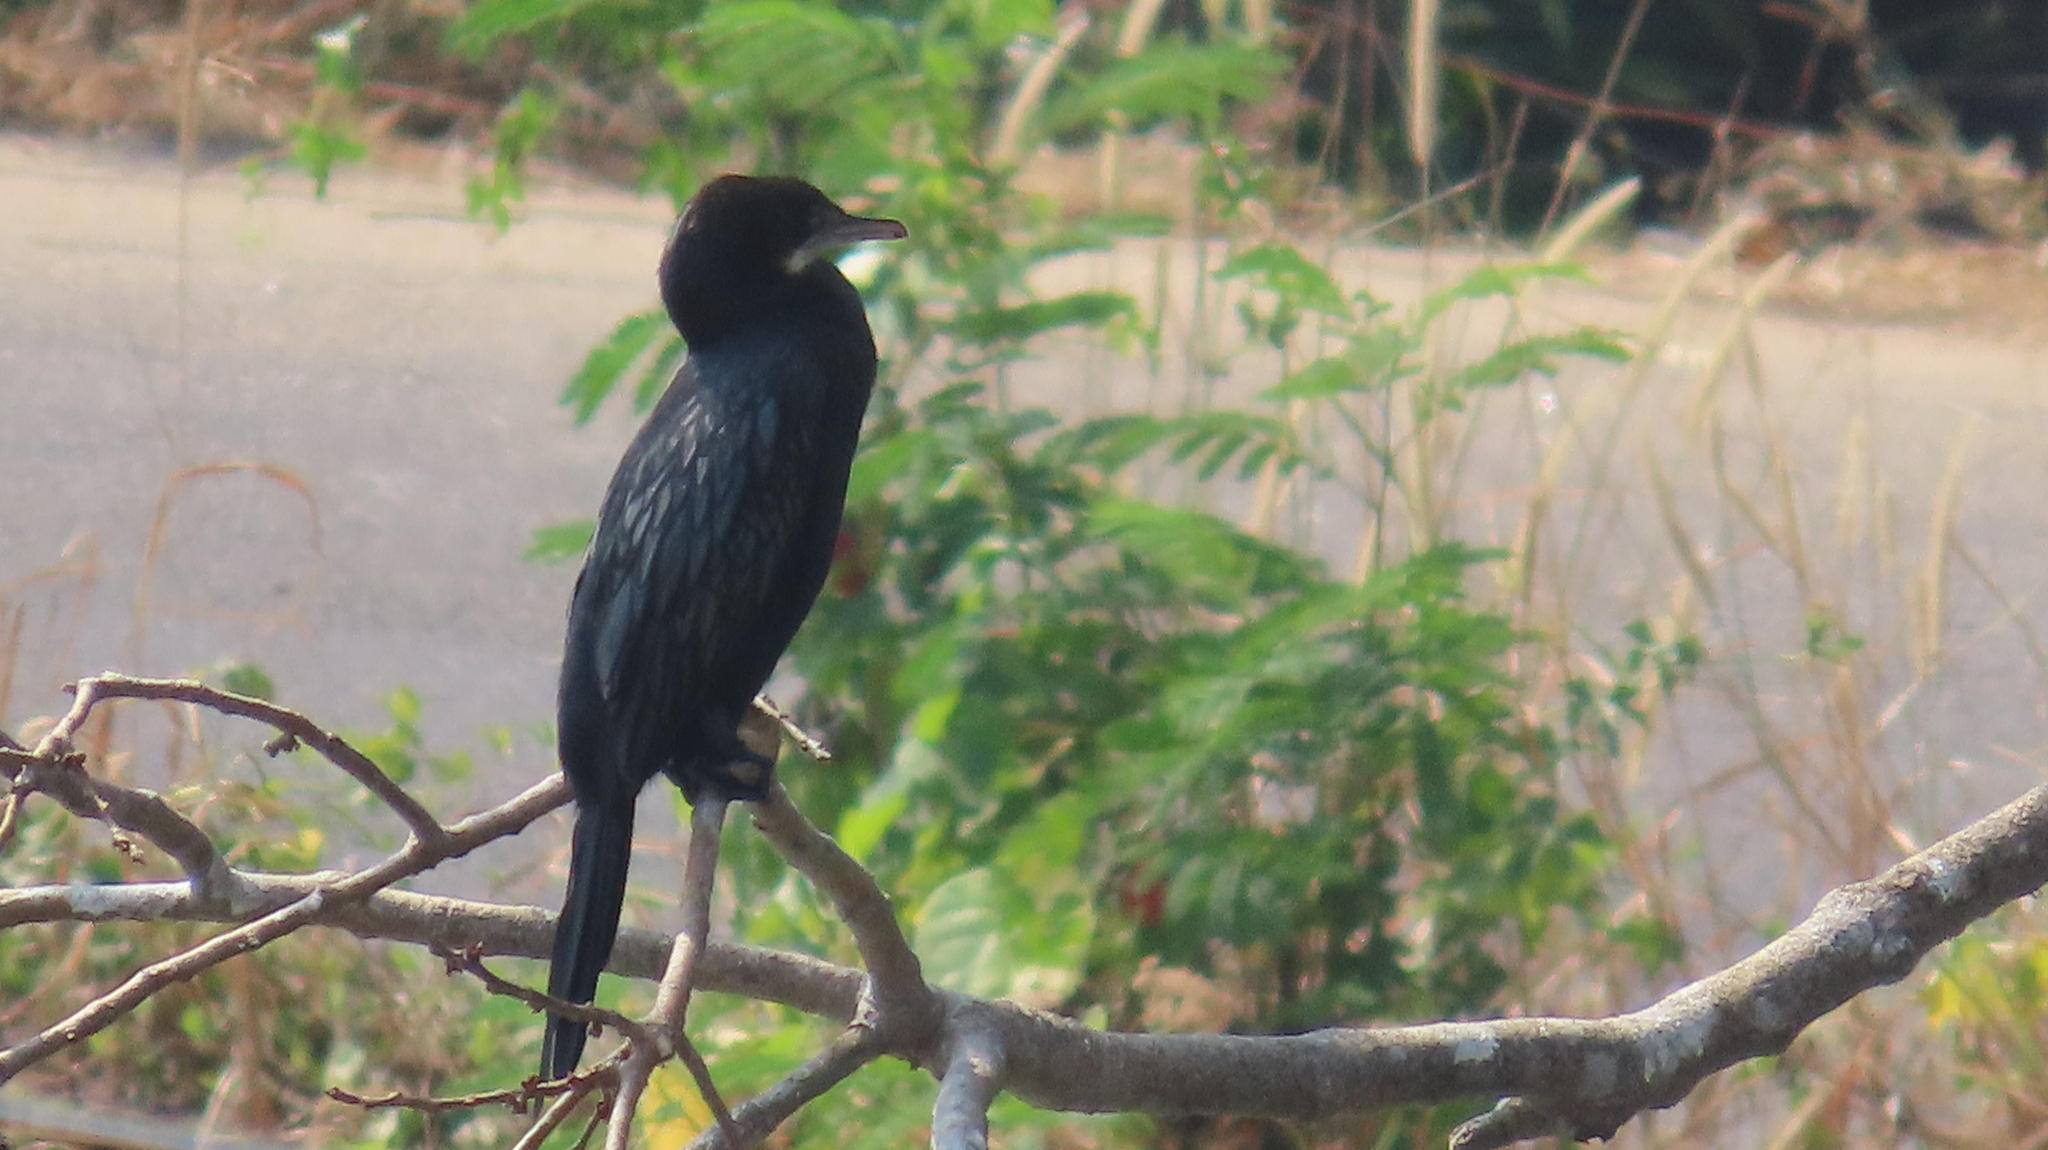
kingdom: Animalia
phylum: Chordata
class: Aves
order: Suliformes
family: Phalacrocoracidae
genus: Microcarbo
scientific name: Microcarbo niger
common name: Little cormorant
